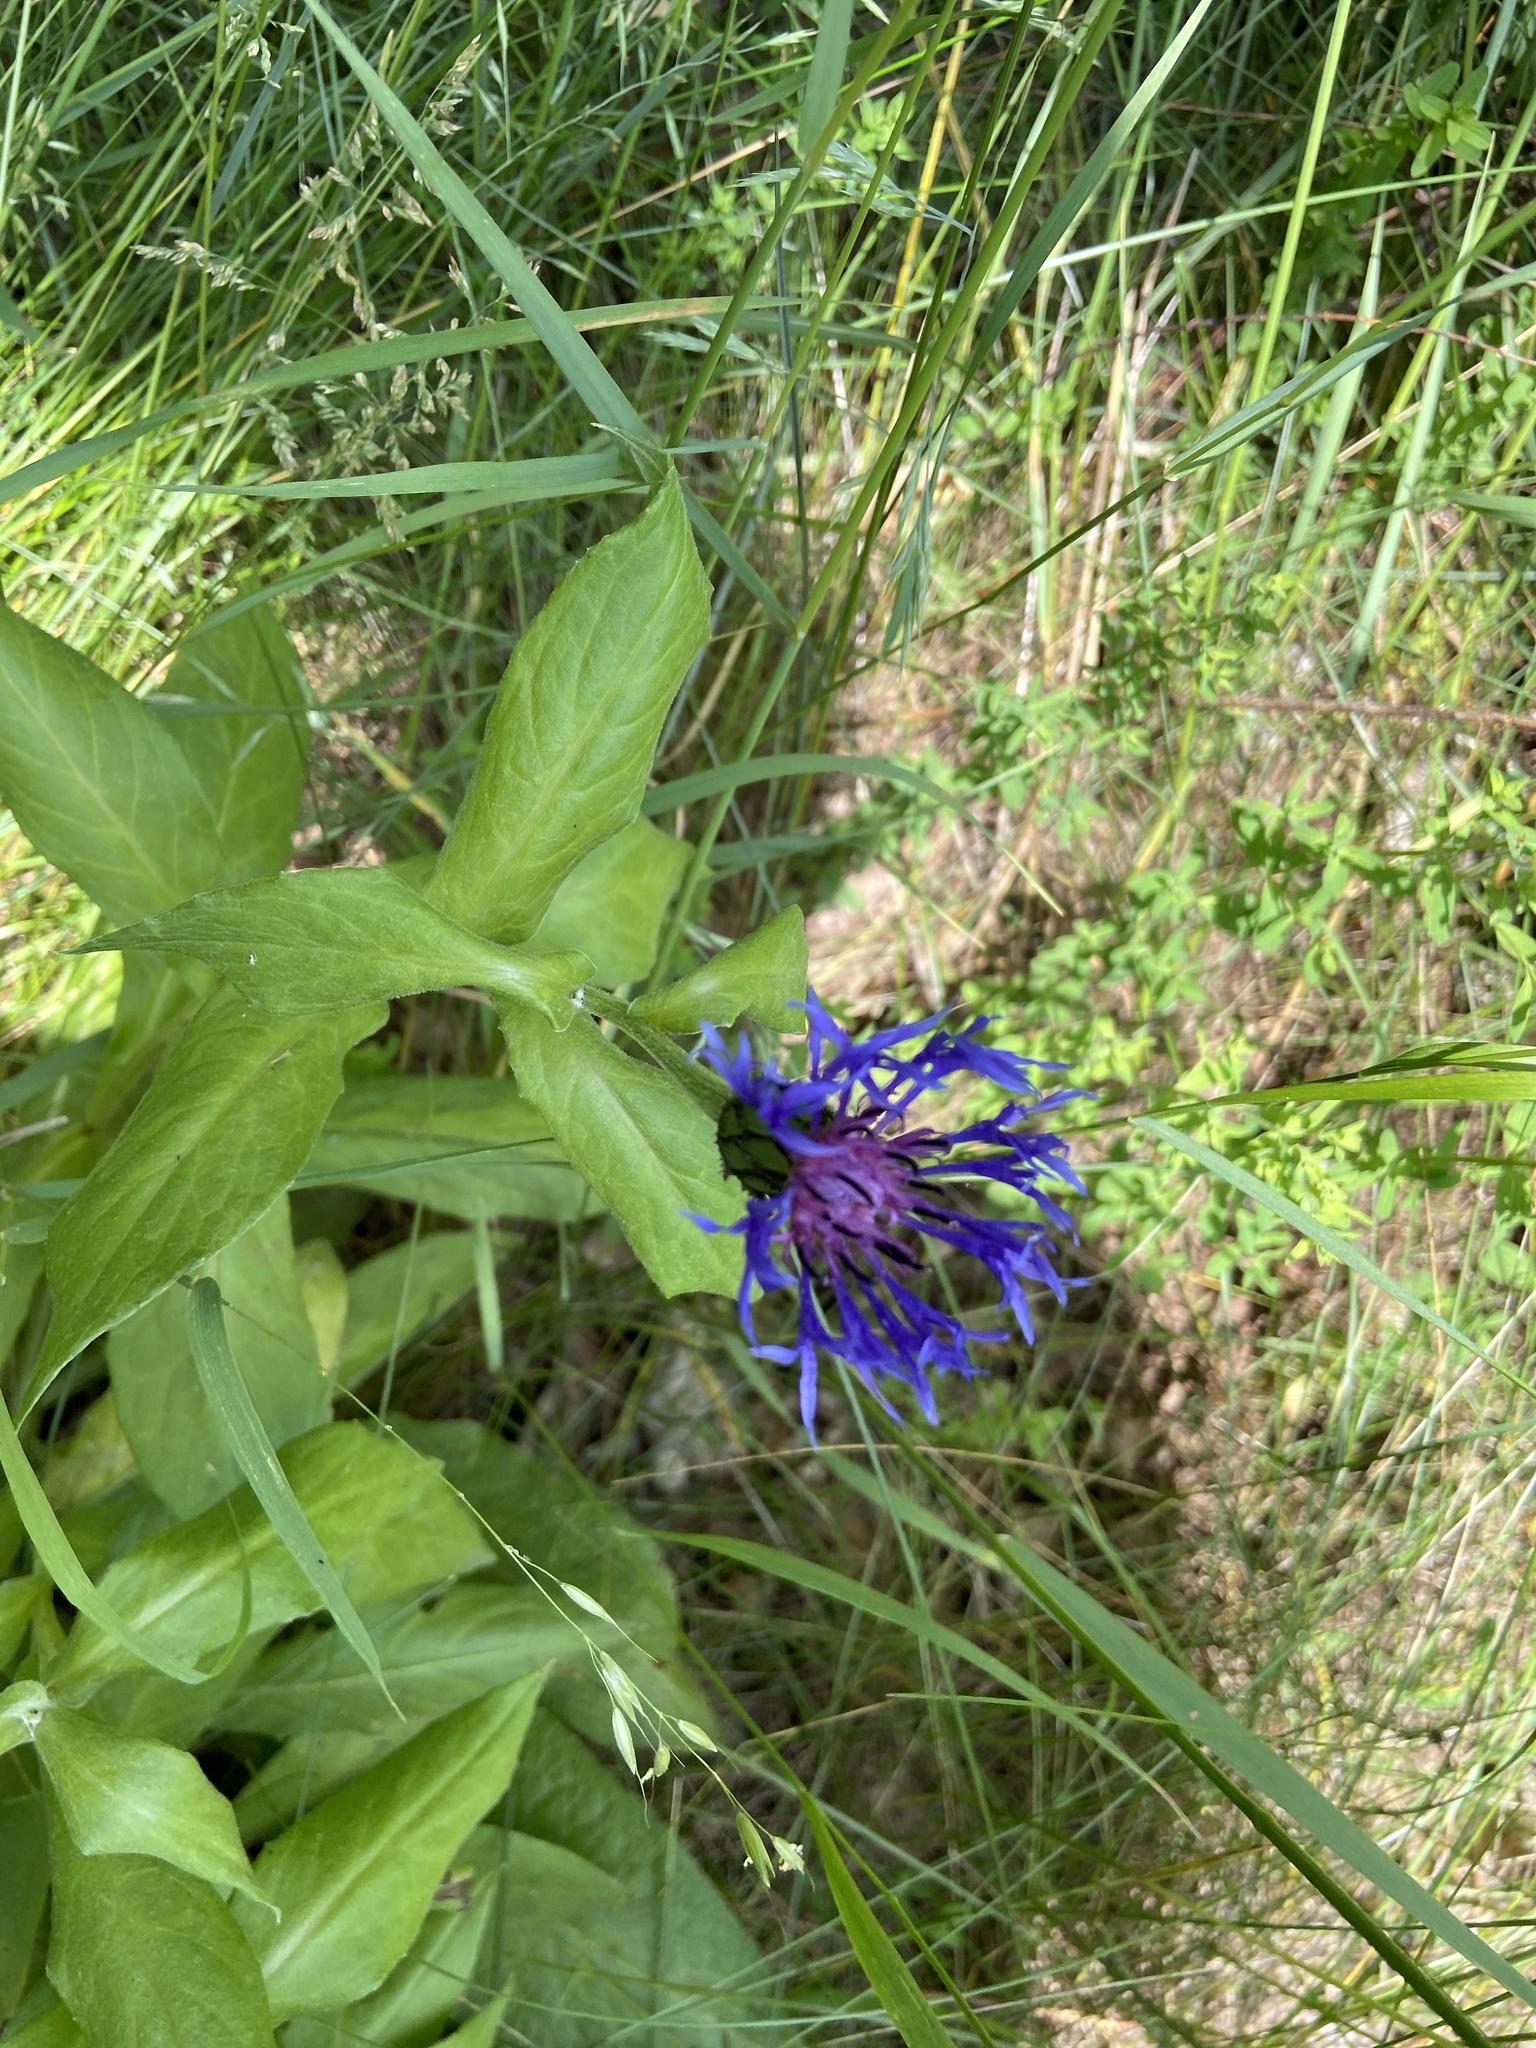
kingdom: Plantae
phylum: Tracheophyta
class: Magnoliopsida
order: Asterales
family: Asteraceae
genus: Centaurea
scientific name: Centaurea montana
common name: Perennial cornflower
